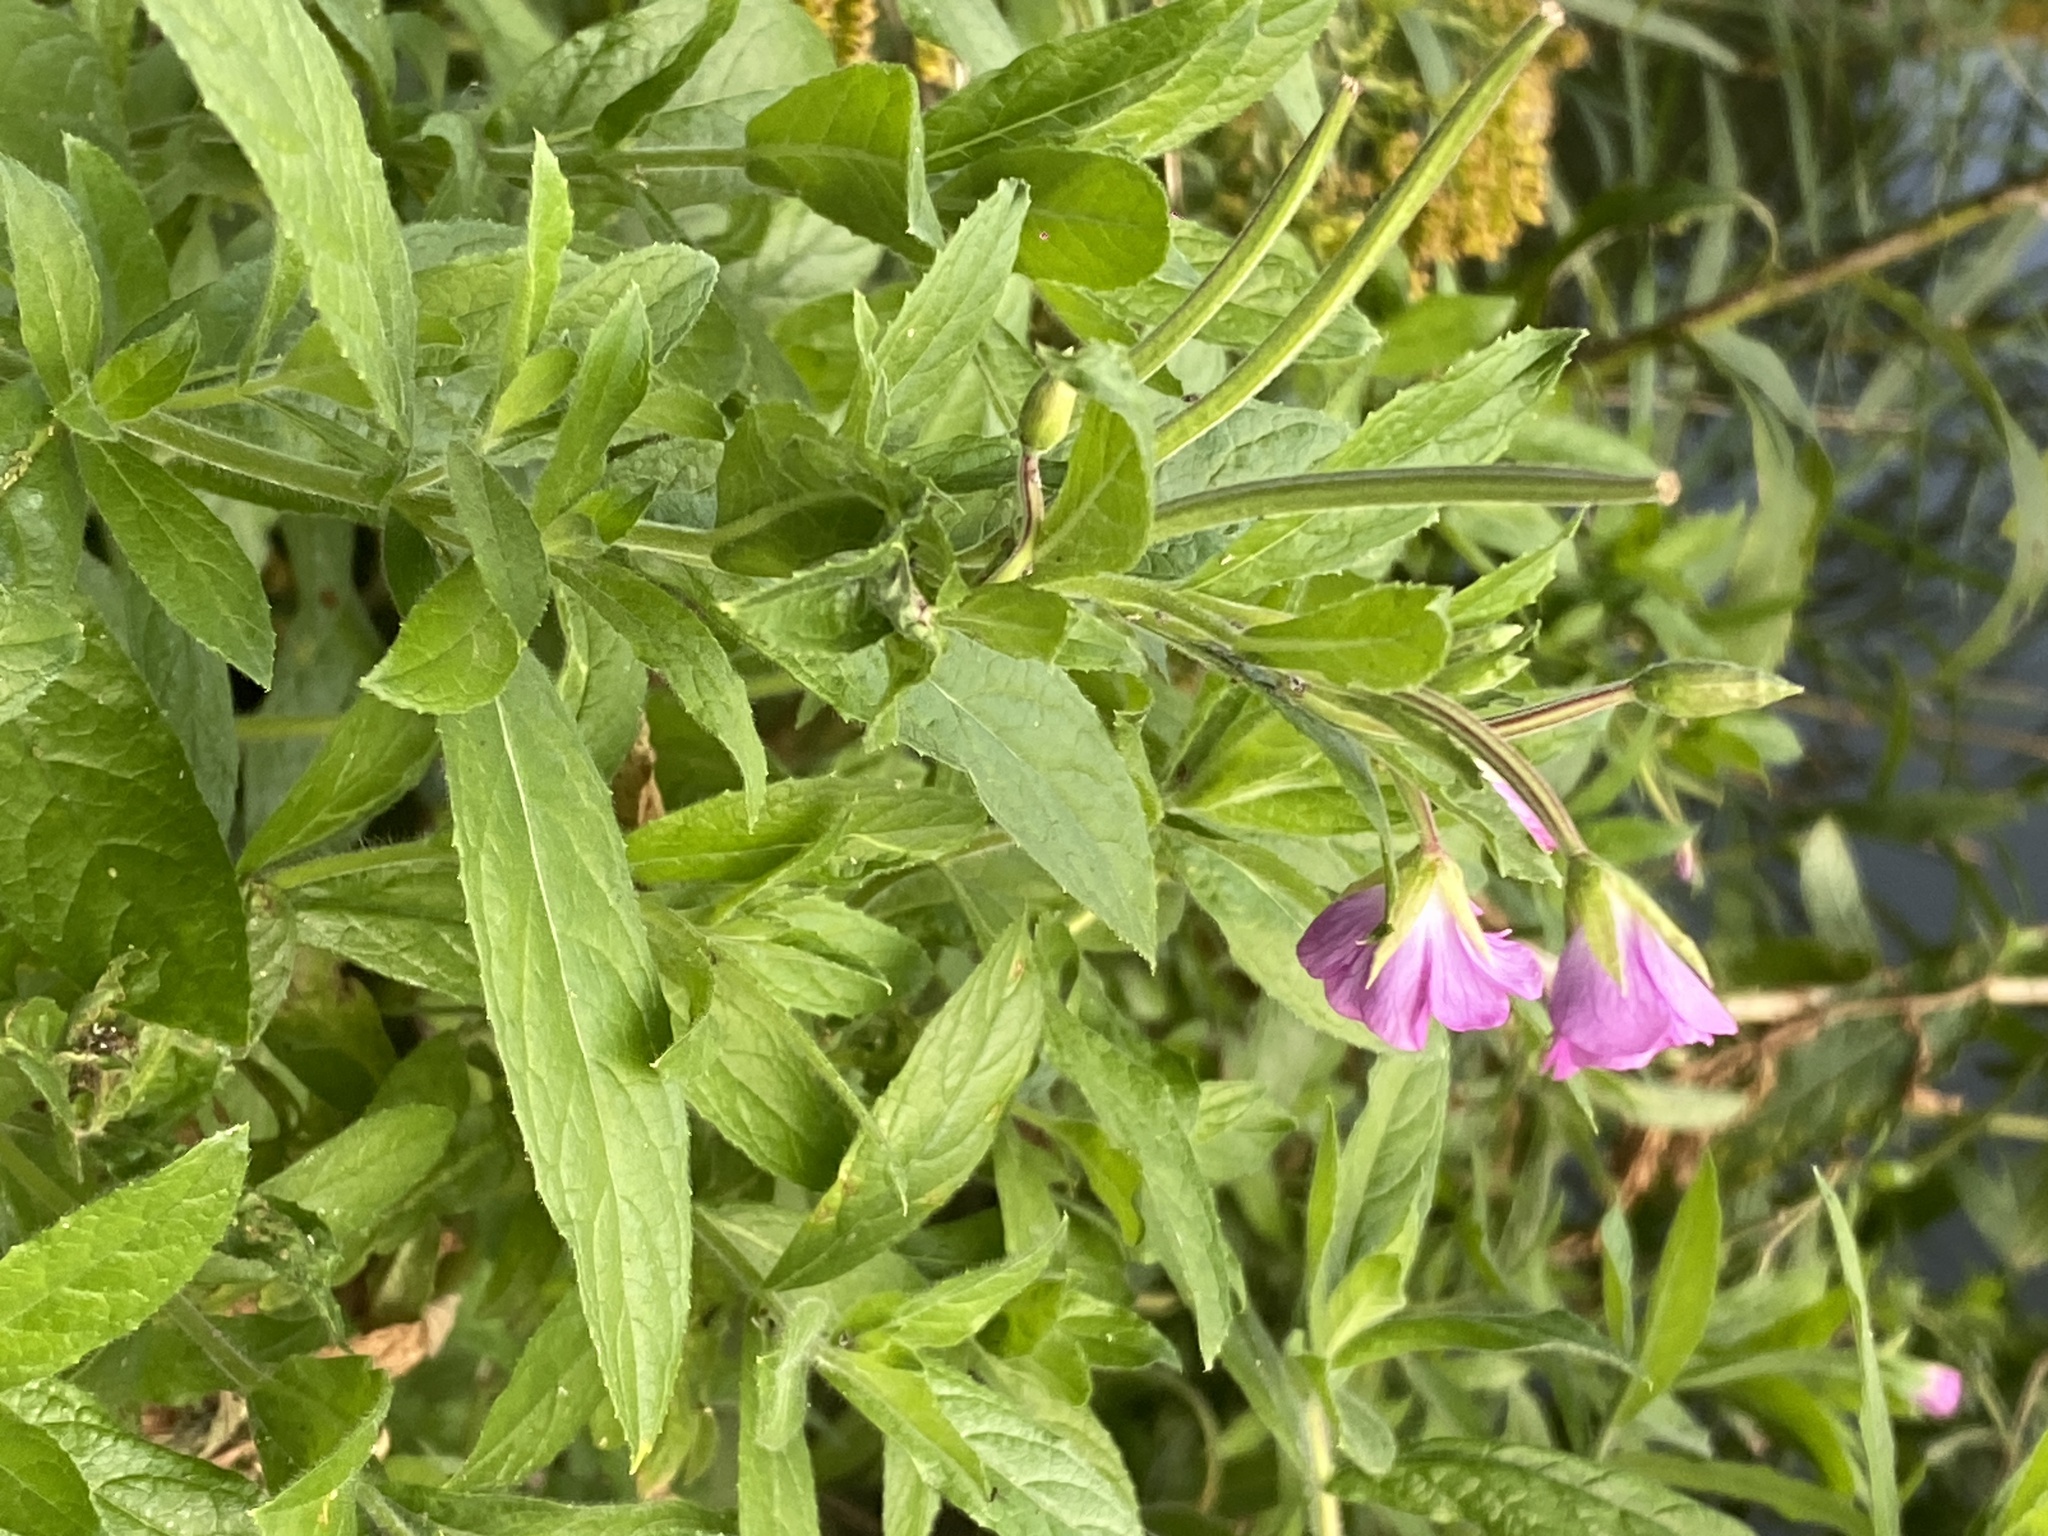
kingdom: Plantae
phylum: Tracheophyta
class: Magnoliopsida
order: Myrtales
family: Onagraceae
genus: Epilobium
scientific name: Epilobium hirsutum
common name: Great willowherb
